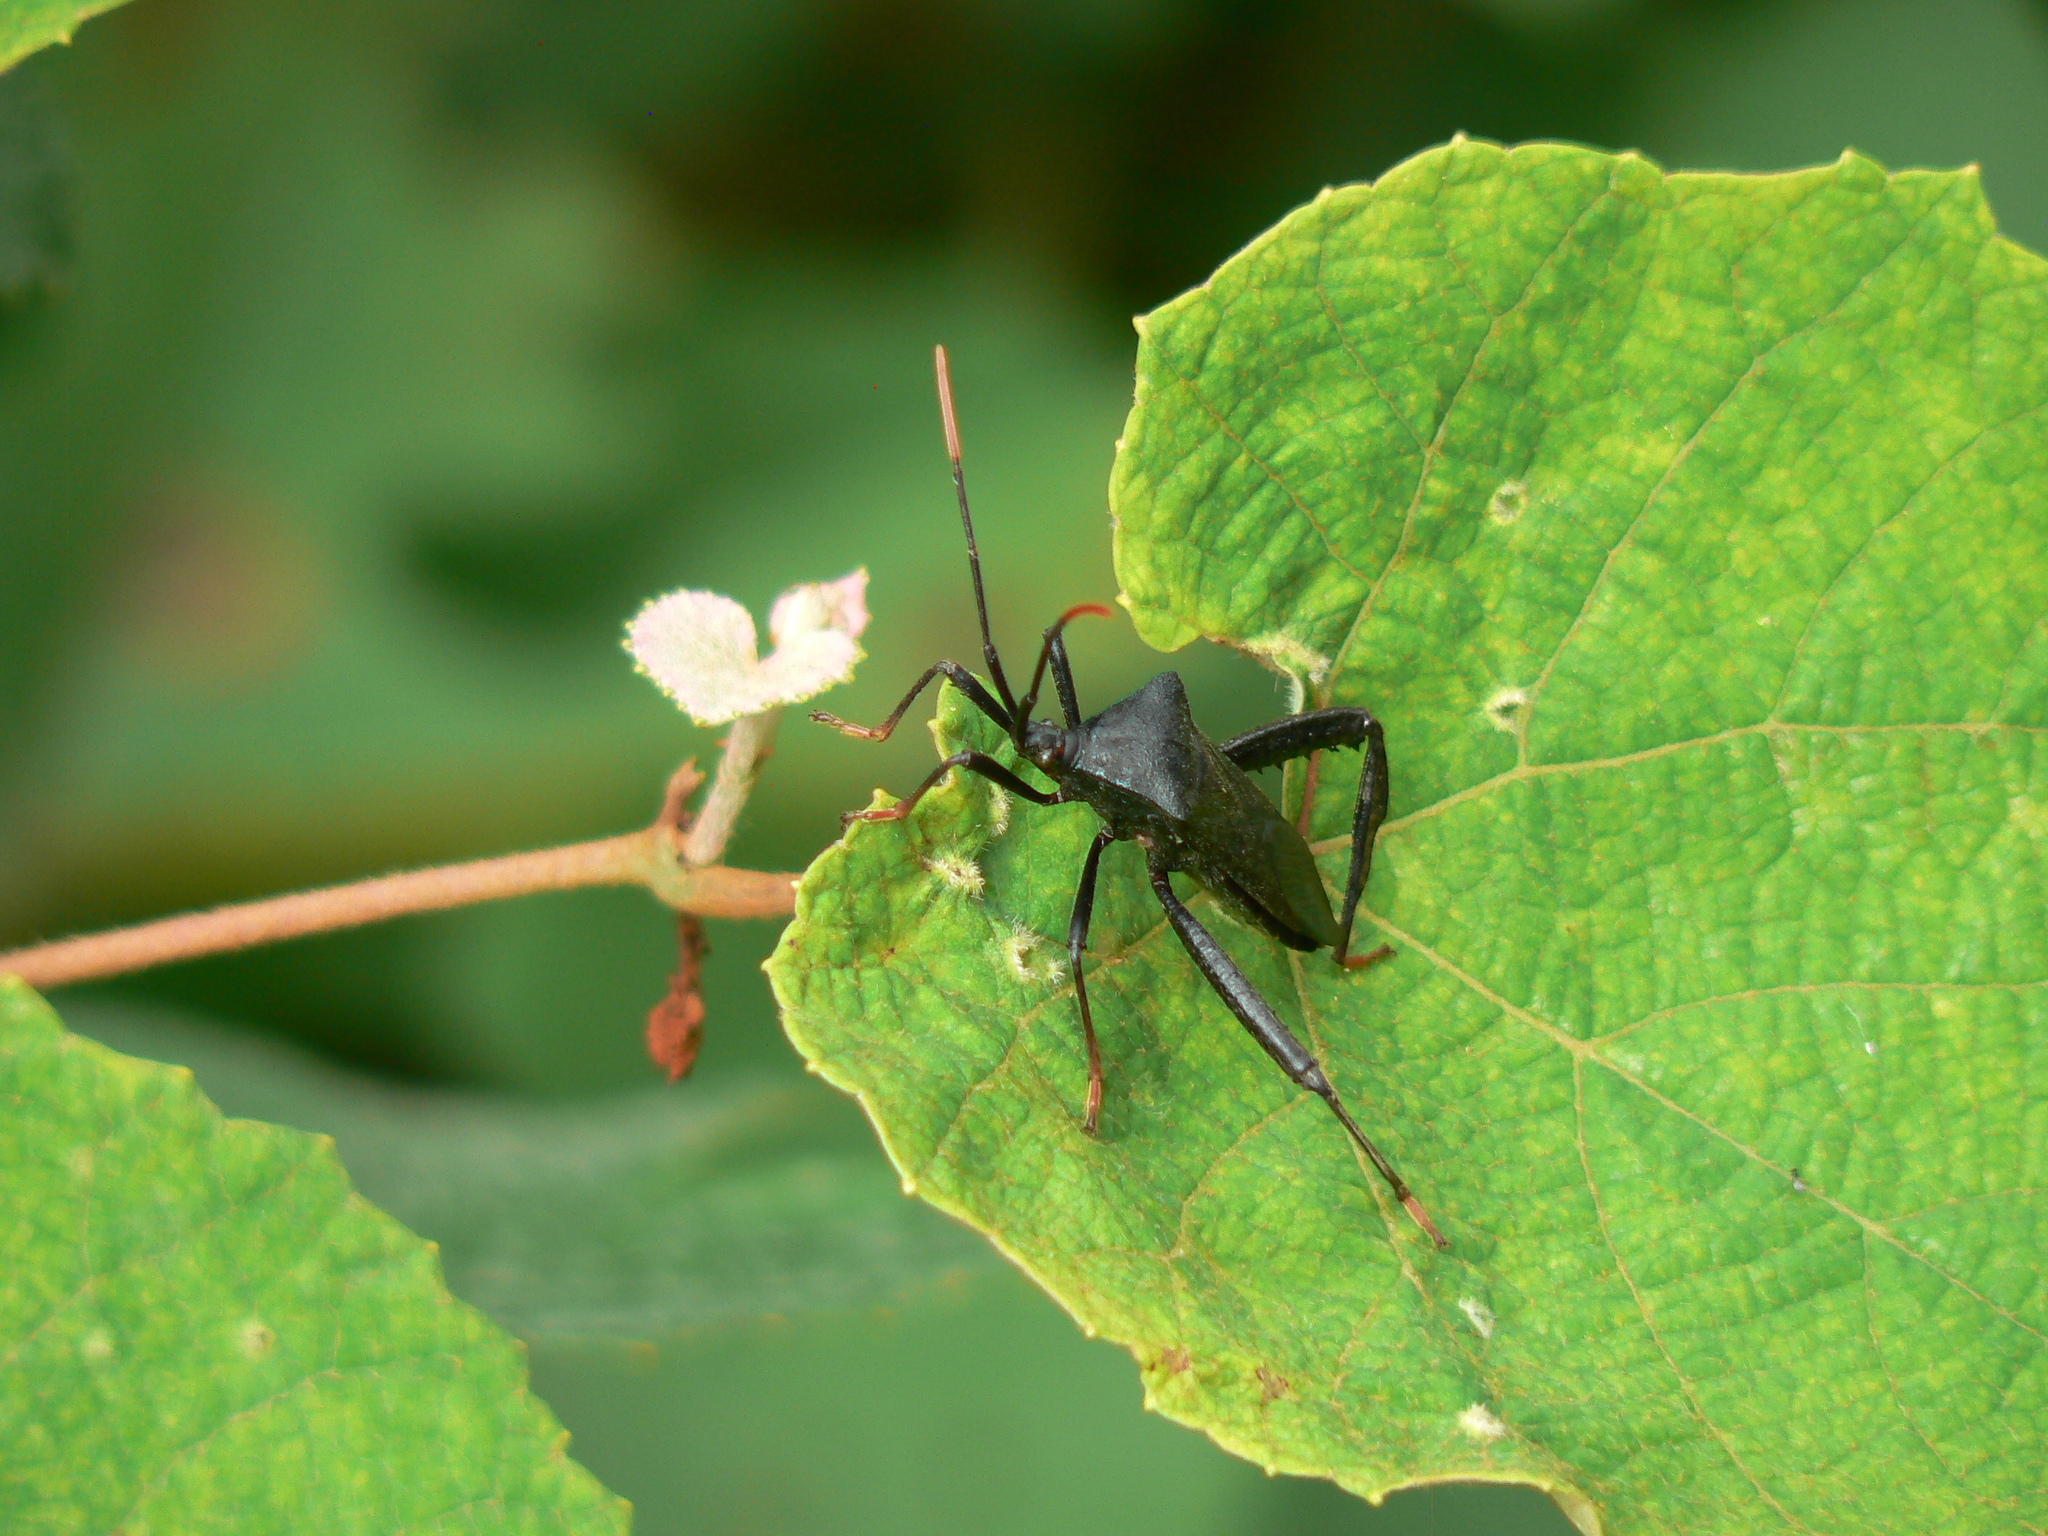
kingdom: Animalia
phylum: Arthropoda
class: Insecta
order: Hemiptera
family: Coreidae
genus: Acanthocephala
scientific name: Acanthocephala terminalis
